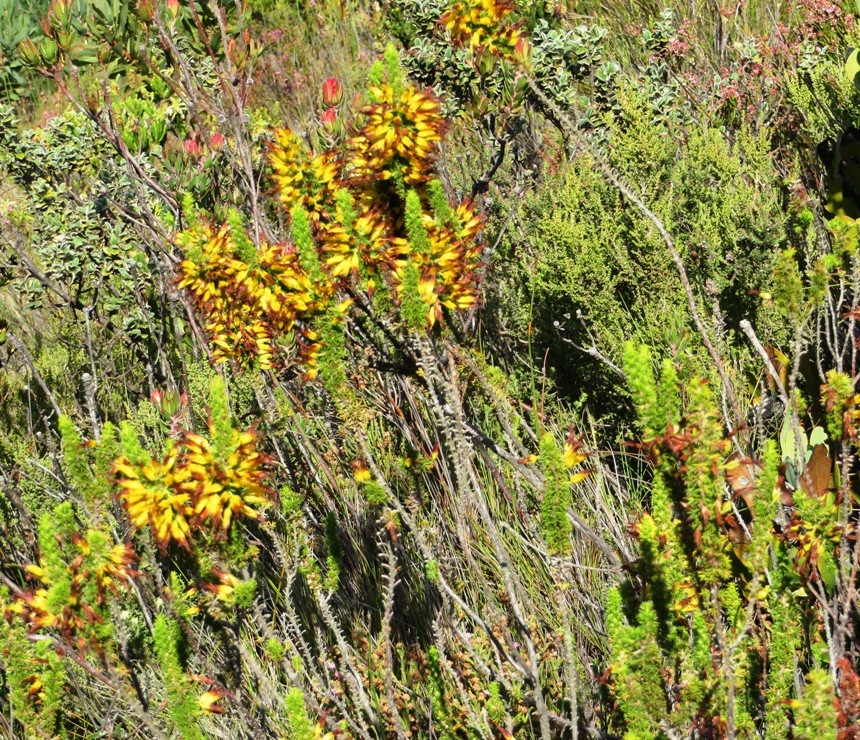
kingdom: Plantae
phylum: Tracheophyta
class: Magnoliopsida
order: Ericales
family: Ericaceae
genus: Erica
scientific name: Erica coccinea
